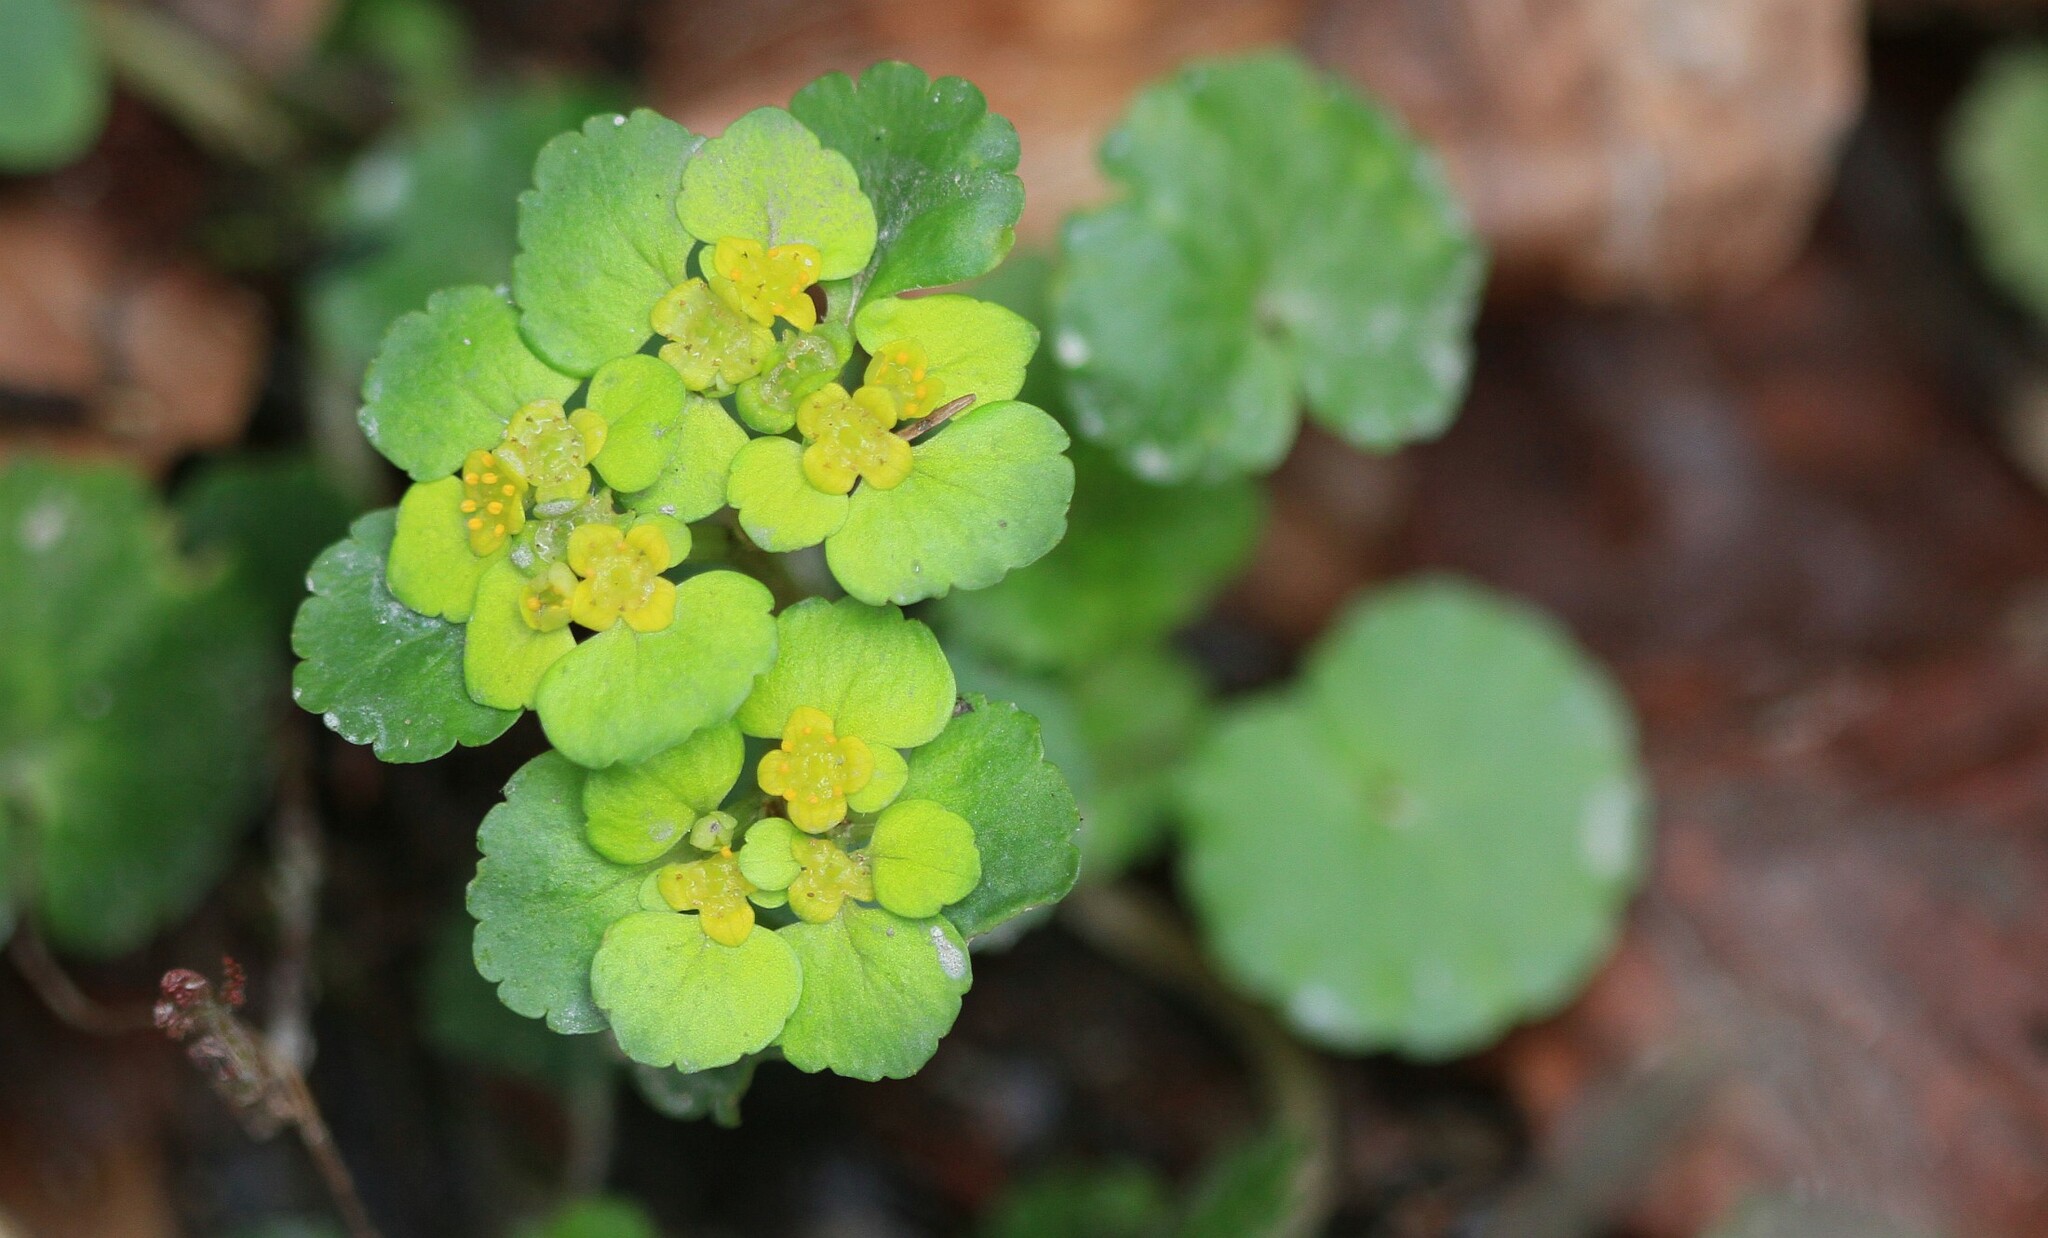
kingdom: Plantae
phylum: Tracheophyta
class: Magnoliopsida
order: Saxifragales
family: Saxifragaceae
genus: Chrysosplenium
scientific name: Chrysosplenium alternifolium
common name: Alternate-leaved golden-saxifrage
